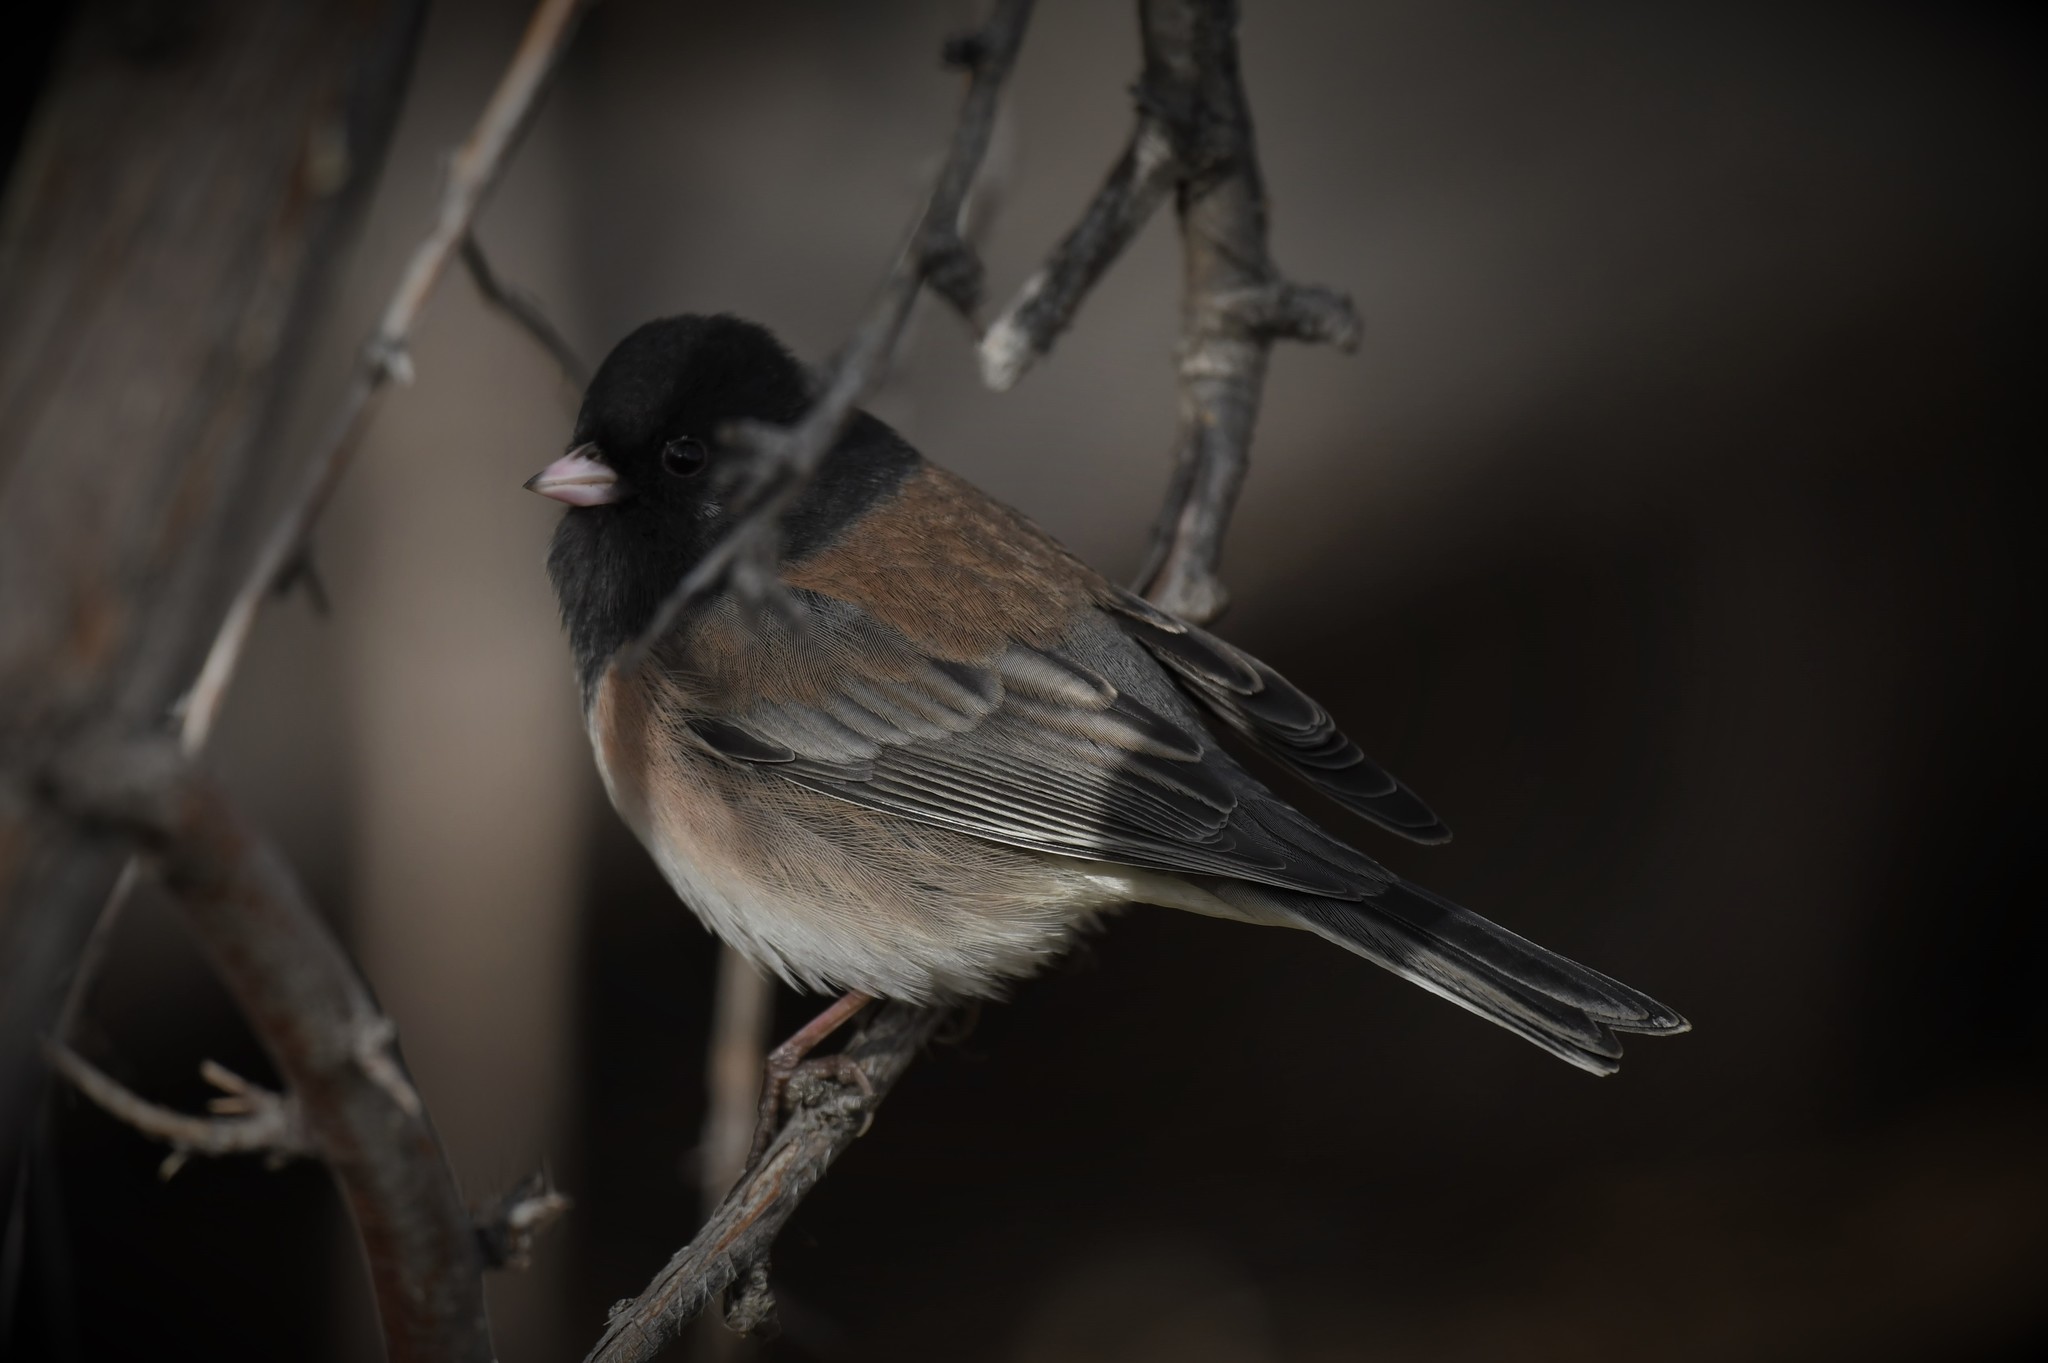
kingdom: Animalia
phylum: Chordata
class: Aves
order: Passeriformes
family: Passerellidae
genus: Junco
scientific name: Junco hyemalis
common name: Dark-eyed junco
